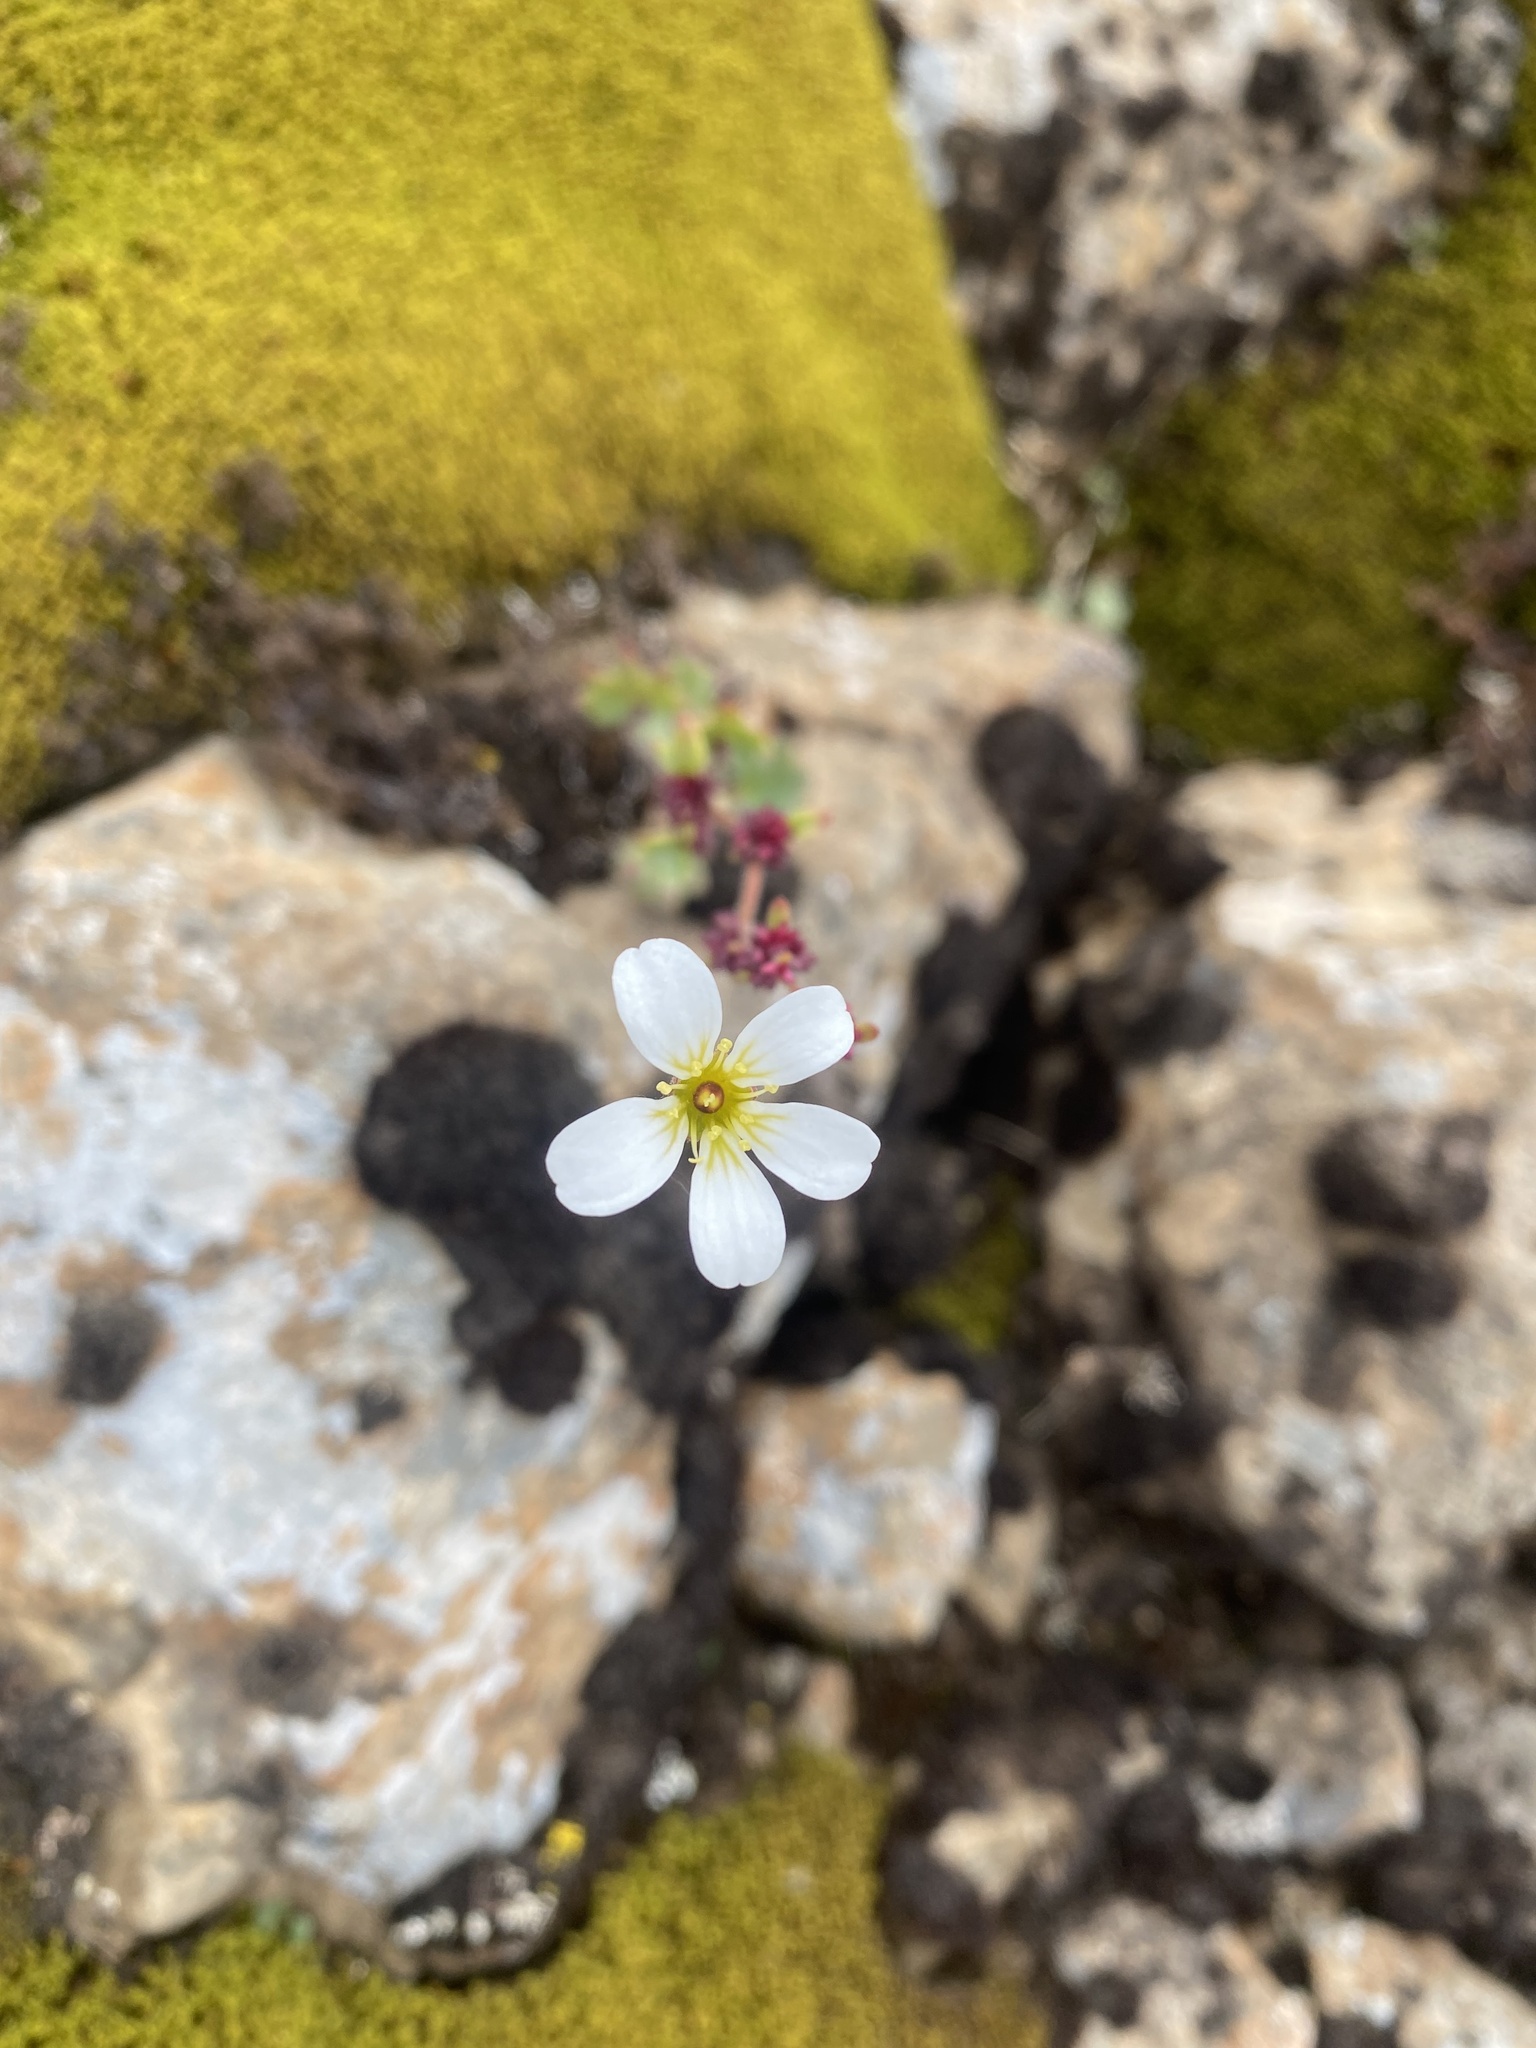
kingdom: Plantae
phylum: Tracheophyta
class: Magnoliopsida
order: Saxifragales
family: Saxifragaceae
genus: Saxifraga
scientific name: Saxifraga cernua
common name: Drooping saxifrage
